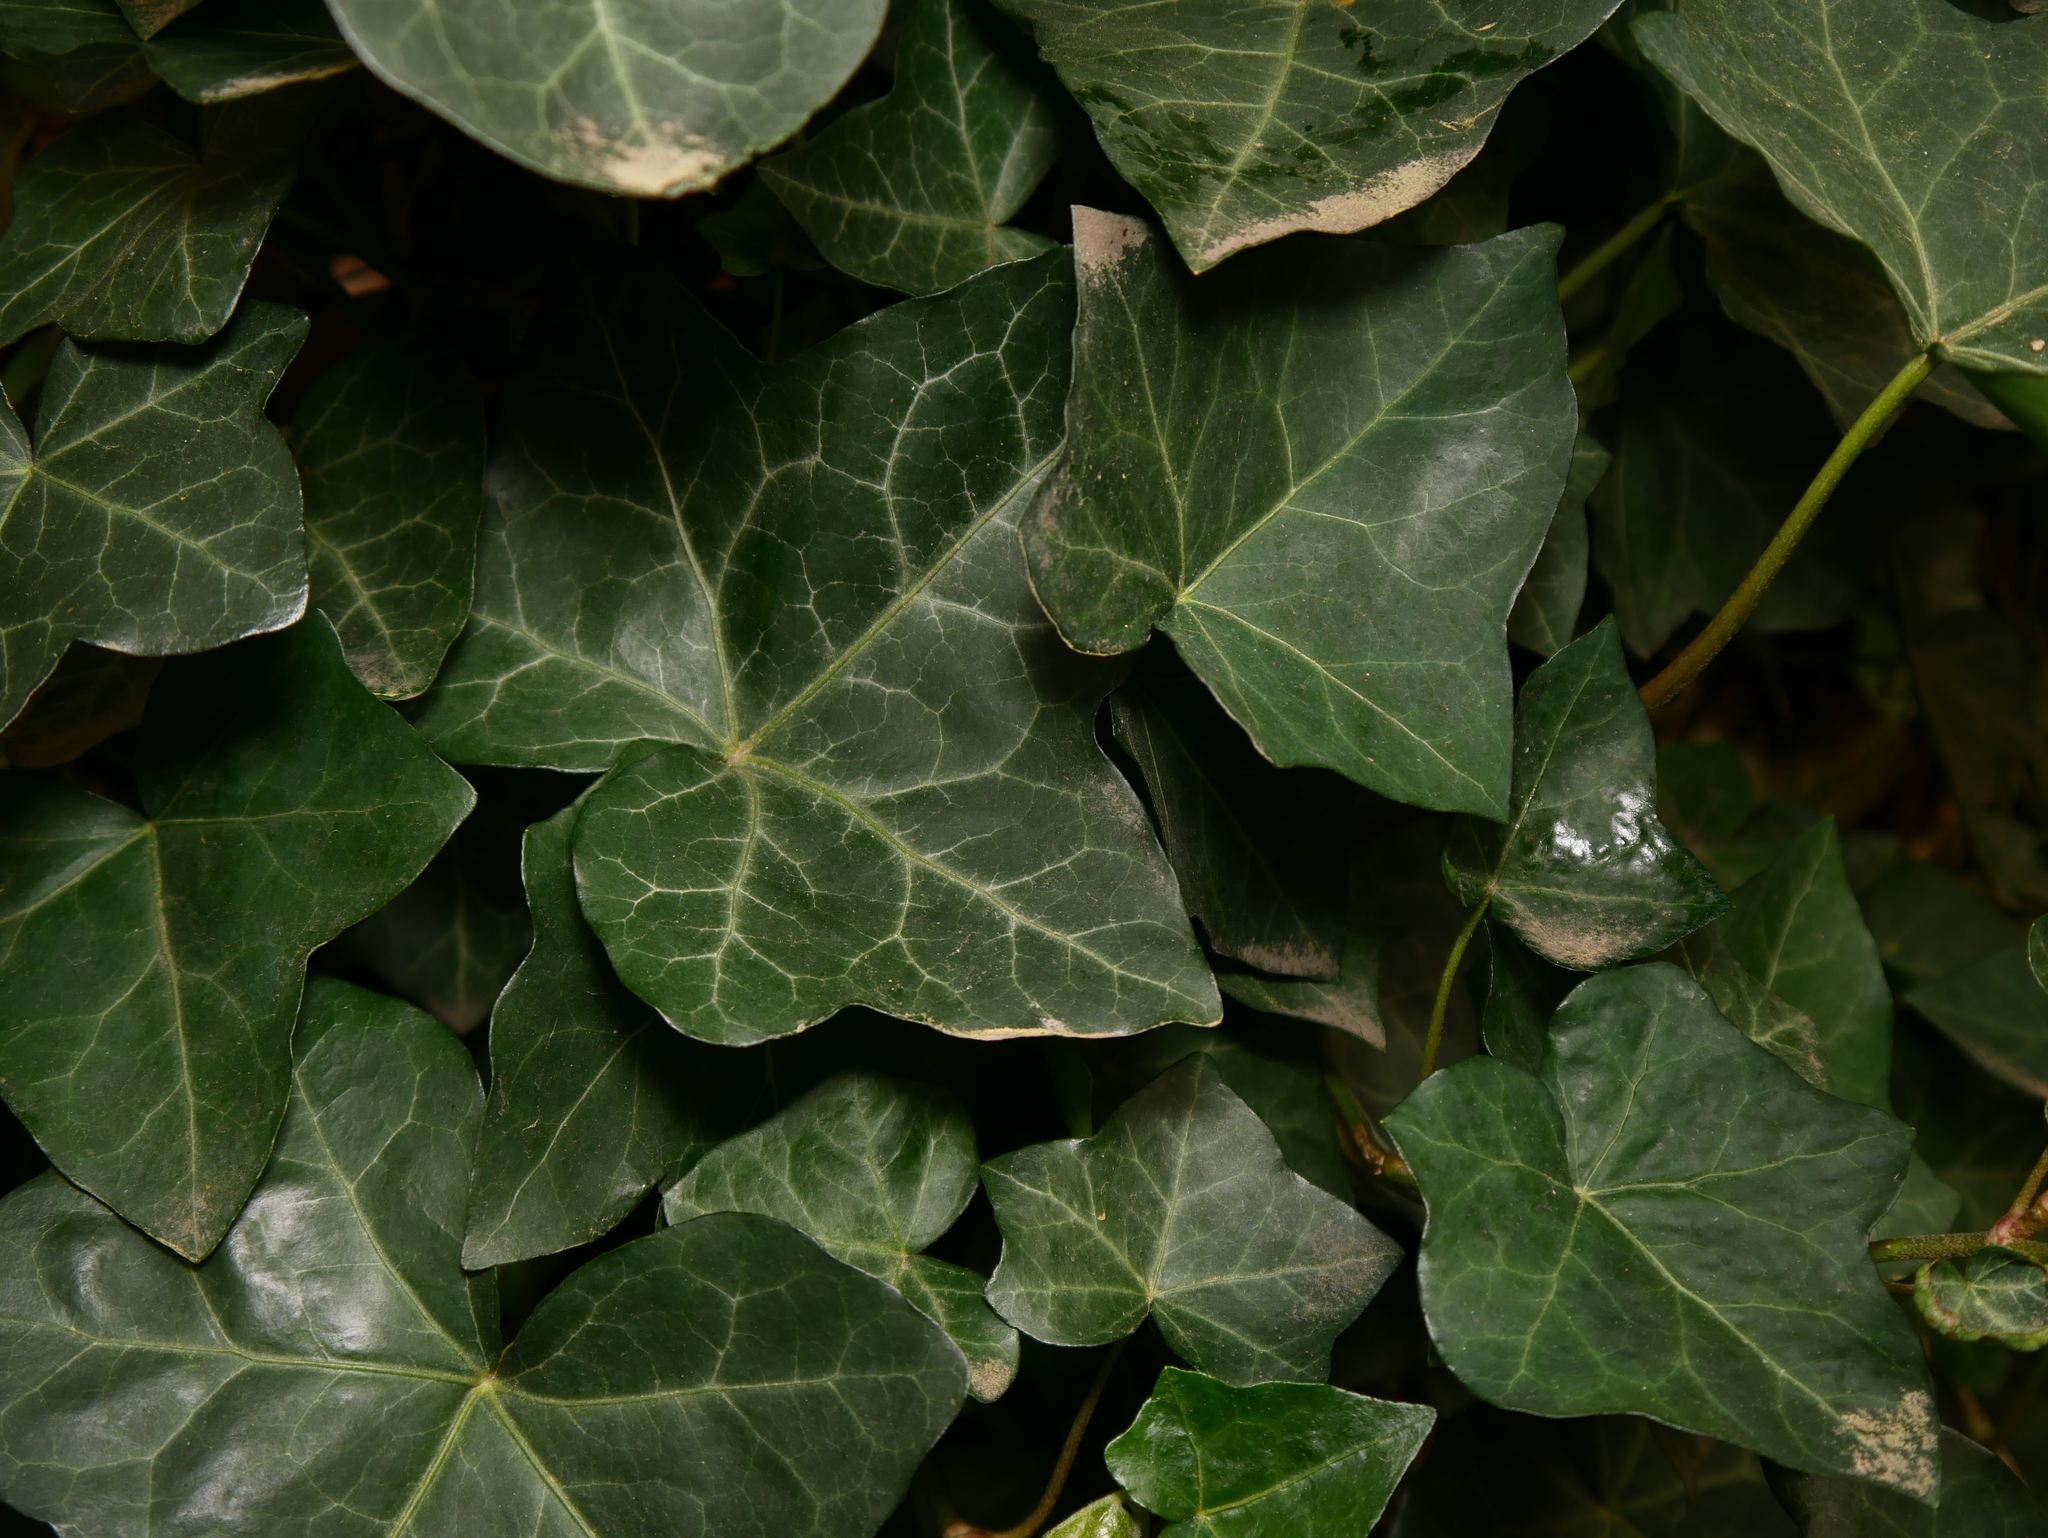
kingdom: Plantae
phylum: Tracheophyta
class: Magnoliopsida
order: Apiales
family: Araliaceae
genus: Hedera
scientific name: Hedera helix
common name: Ivy
